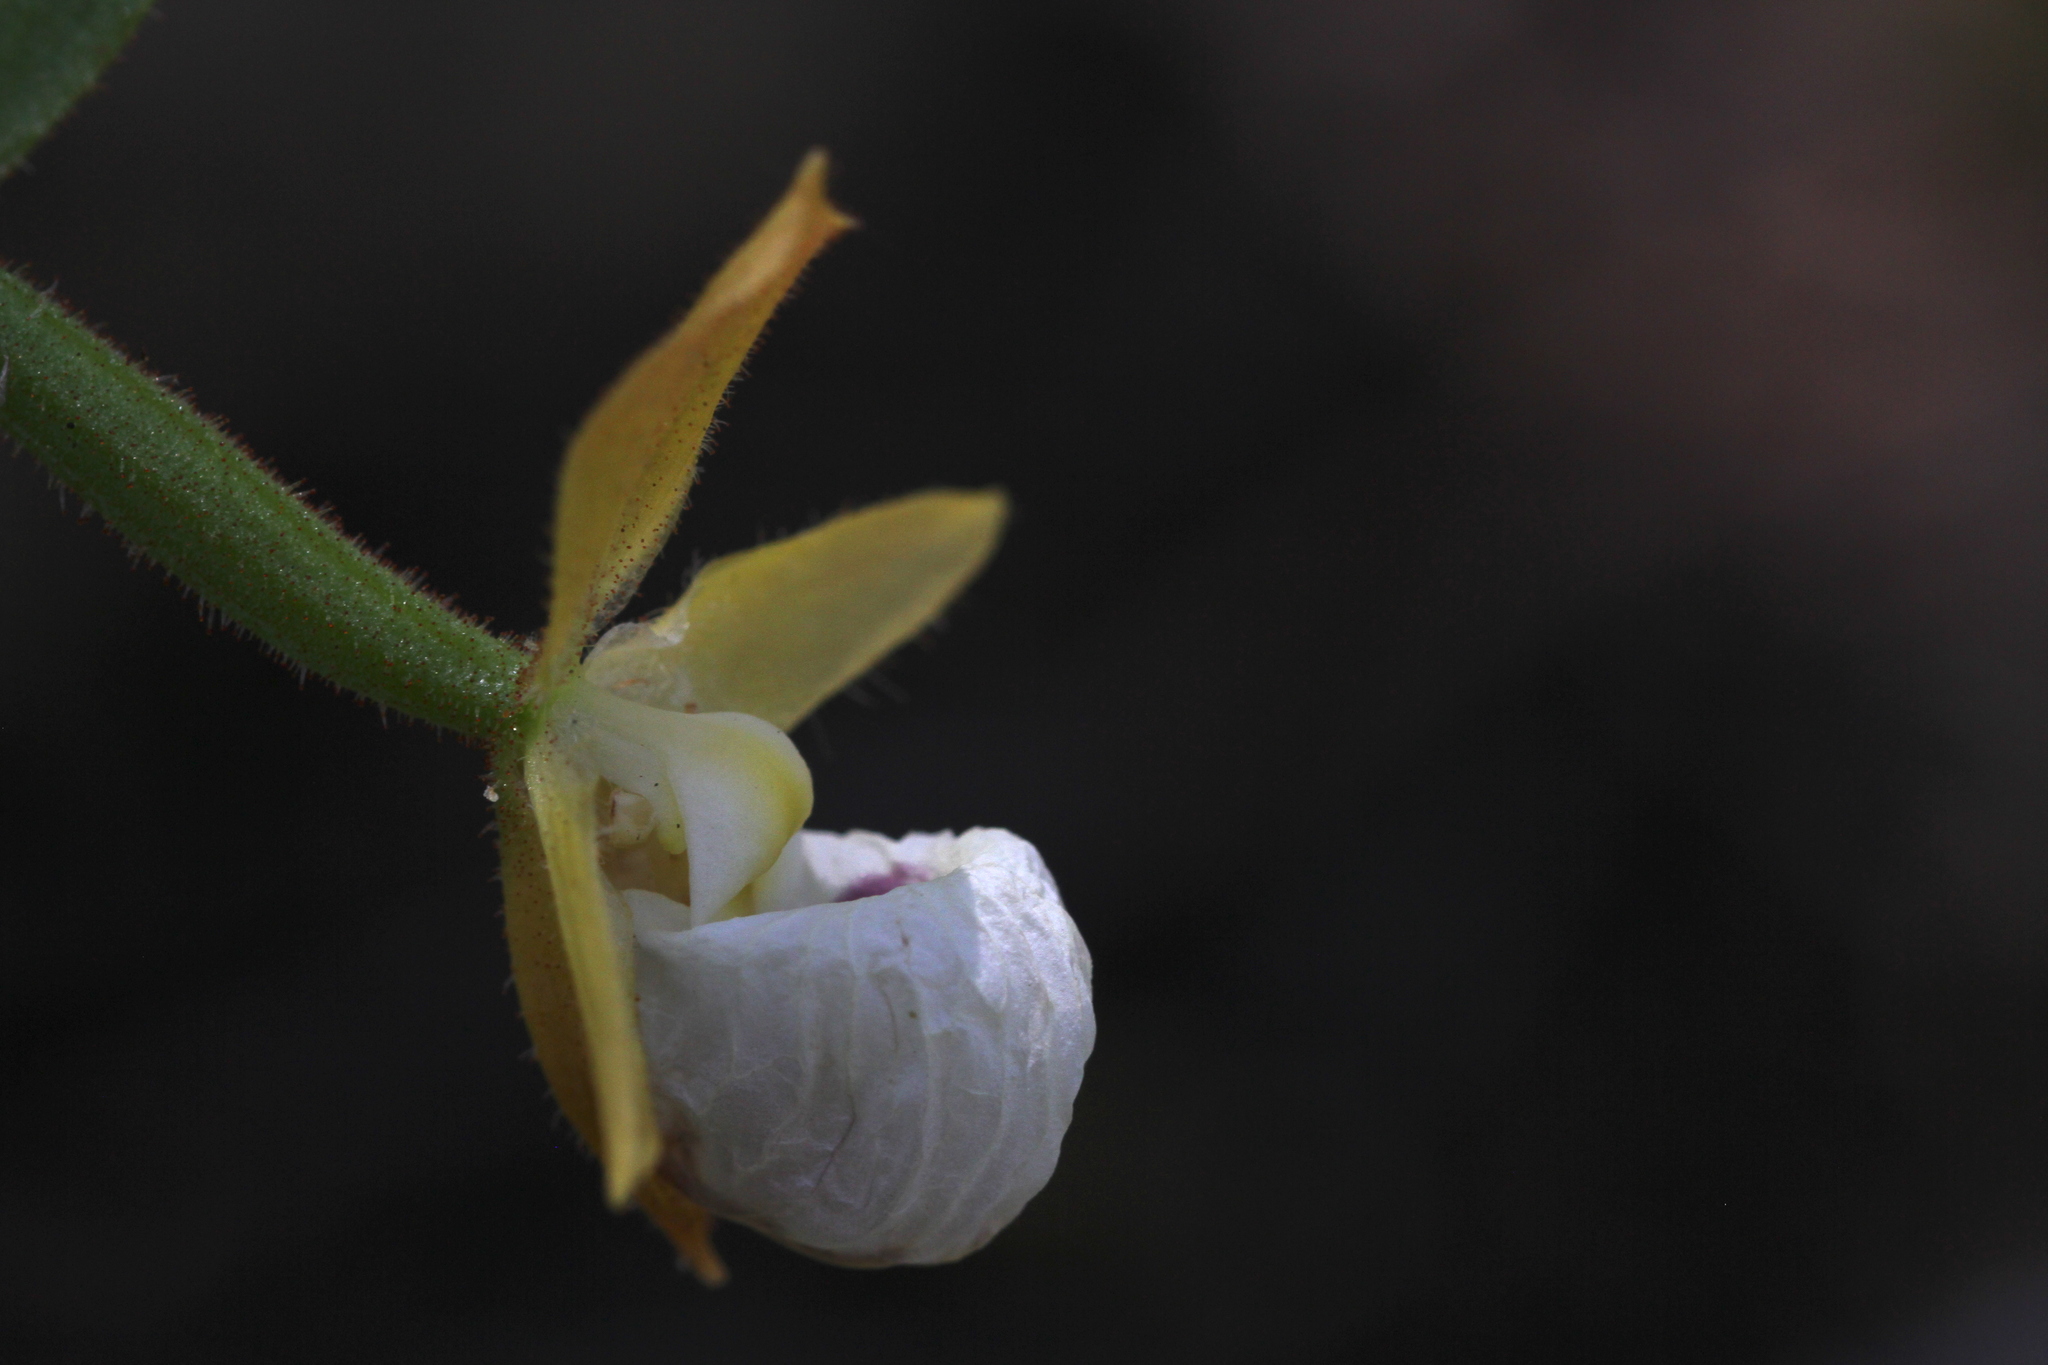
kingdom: Plantae
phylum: Tracheophyta
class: Liliopsida
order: Asparagales
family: Orchidaceae
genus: Cypripedium
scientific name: Cypripedium californicum
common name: California lady's slipper
